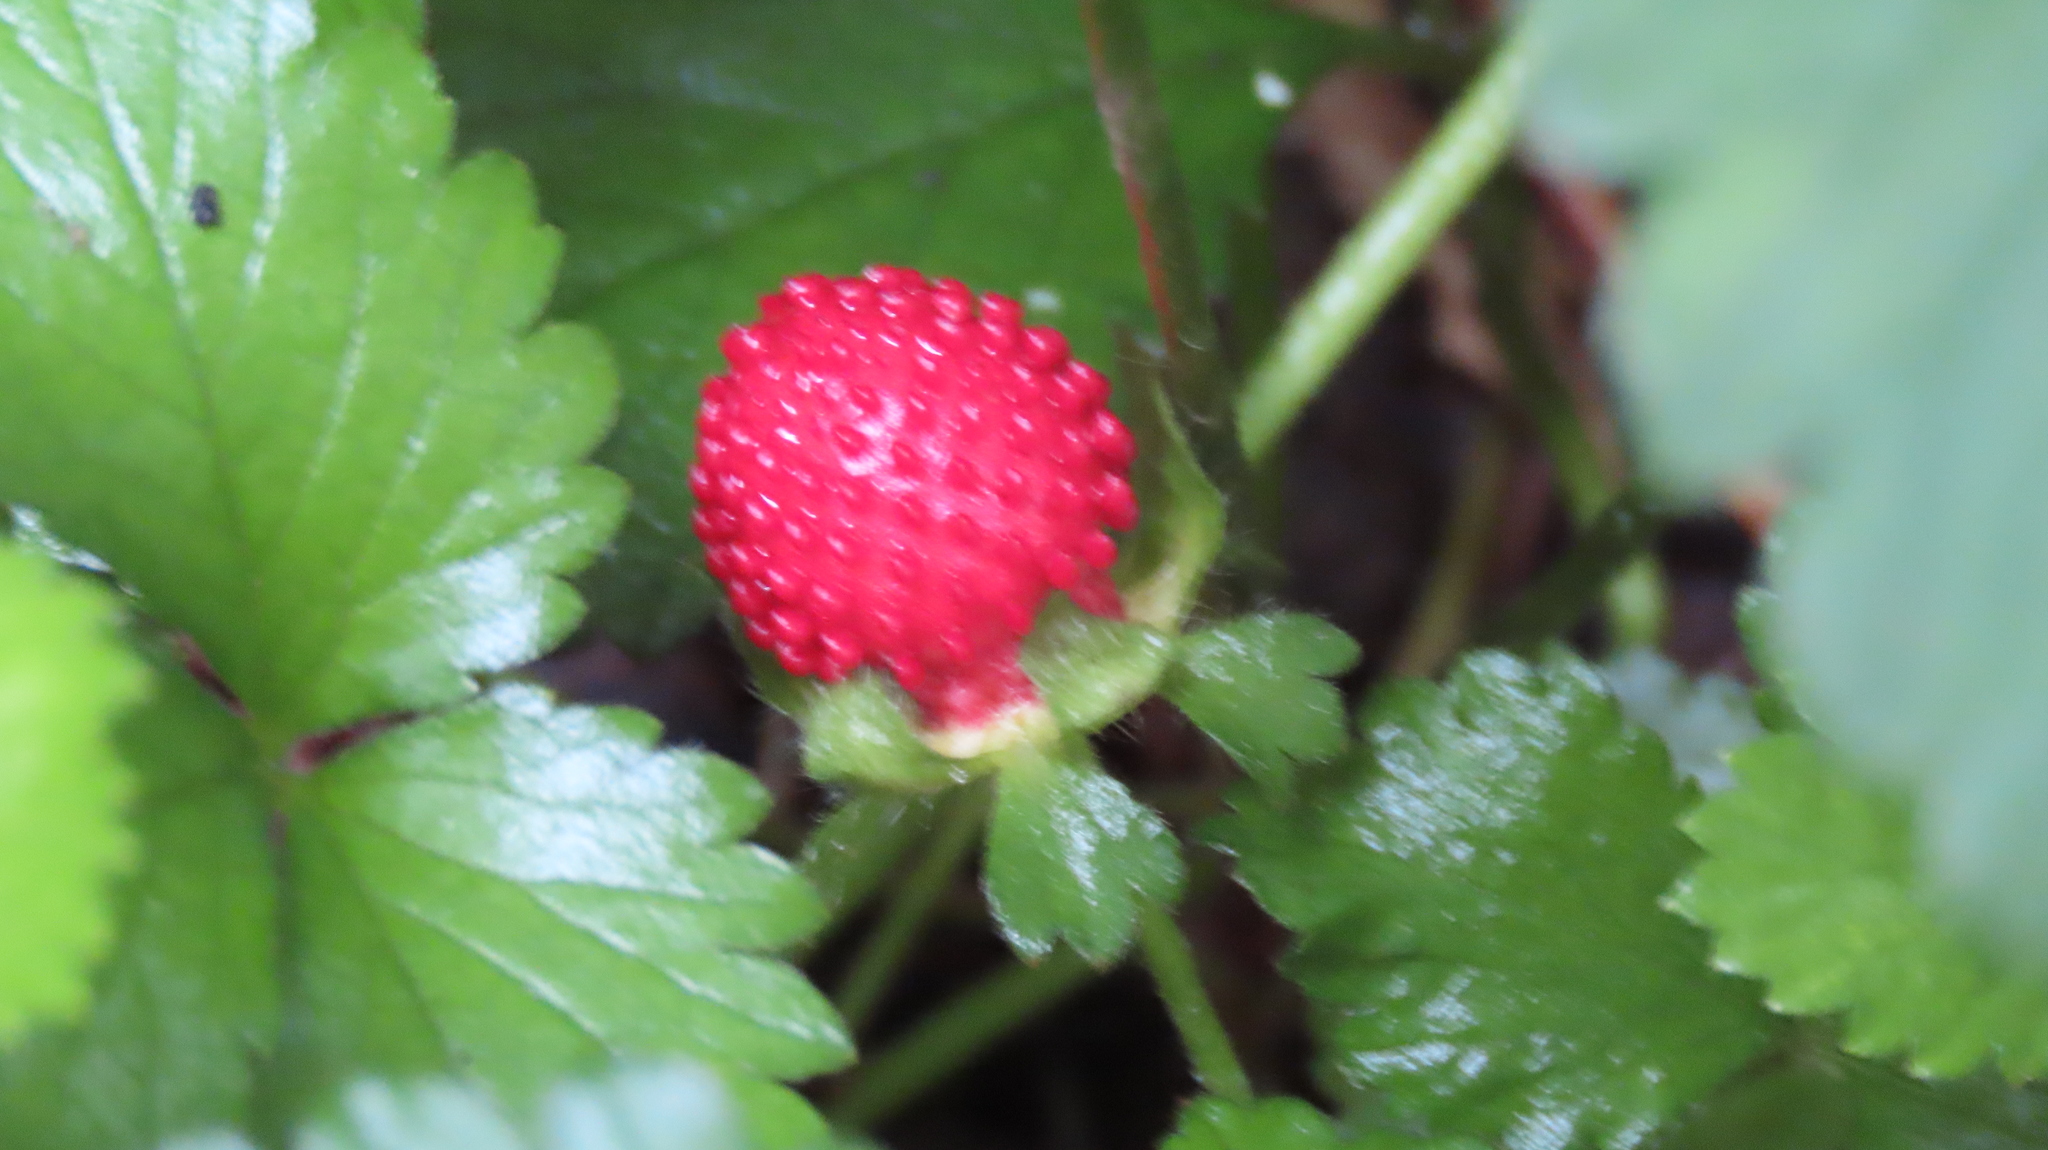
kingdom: Plantae
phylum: Tracheophyta
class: Magnoliopsida
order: Rosales
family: Rosaceae
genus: Potentilla
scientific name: Potentilla indica
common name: Yellow-flowered strawberry
